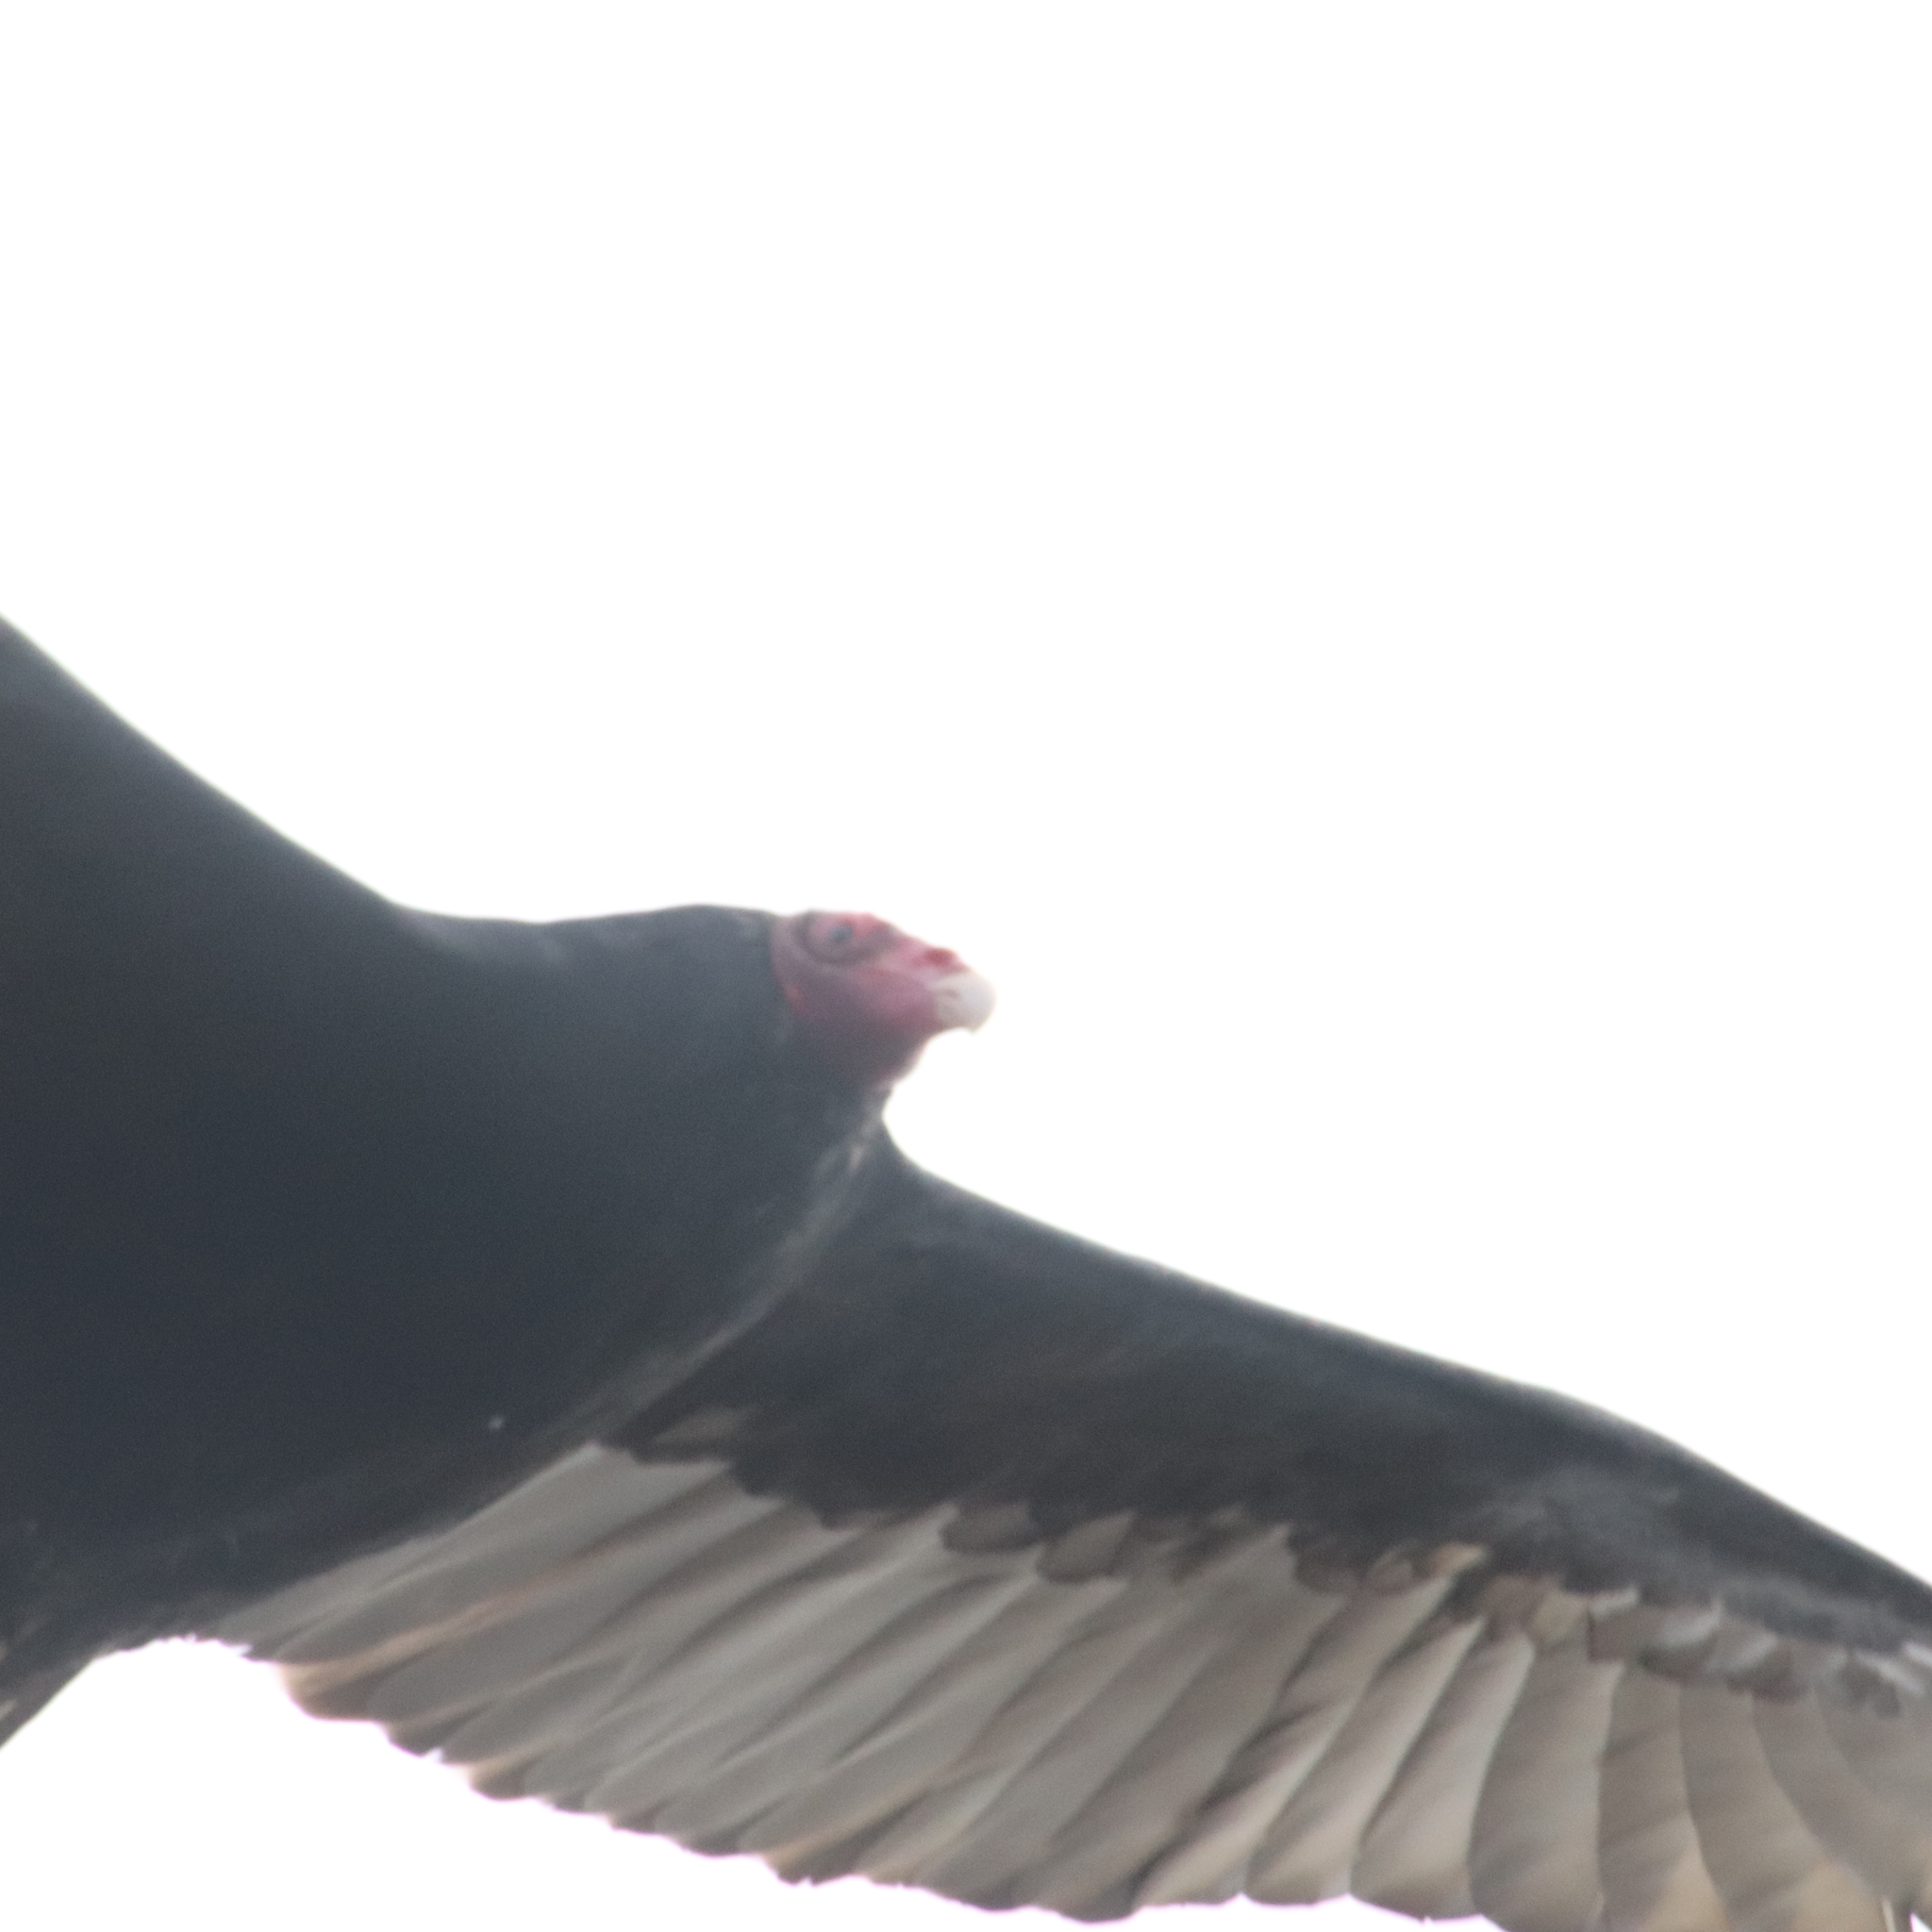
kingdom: Animalia
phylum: Chordata
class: Aves
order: Accipitriformes
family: Cathartidae
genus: Cathartes
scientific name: Cathartes aura
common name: Turkey vulture
